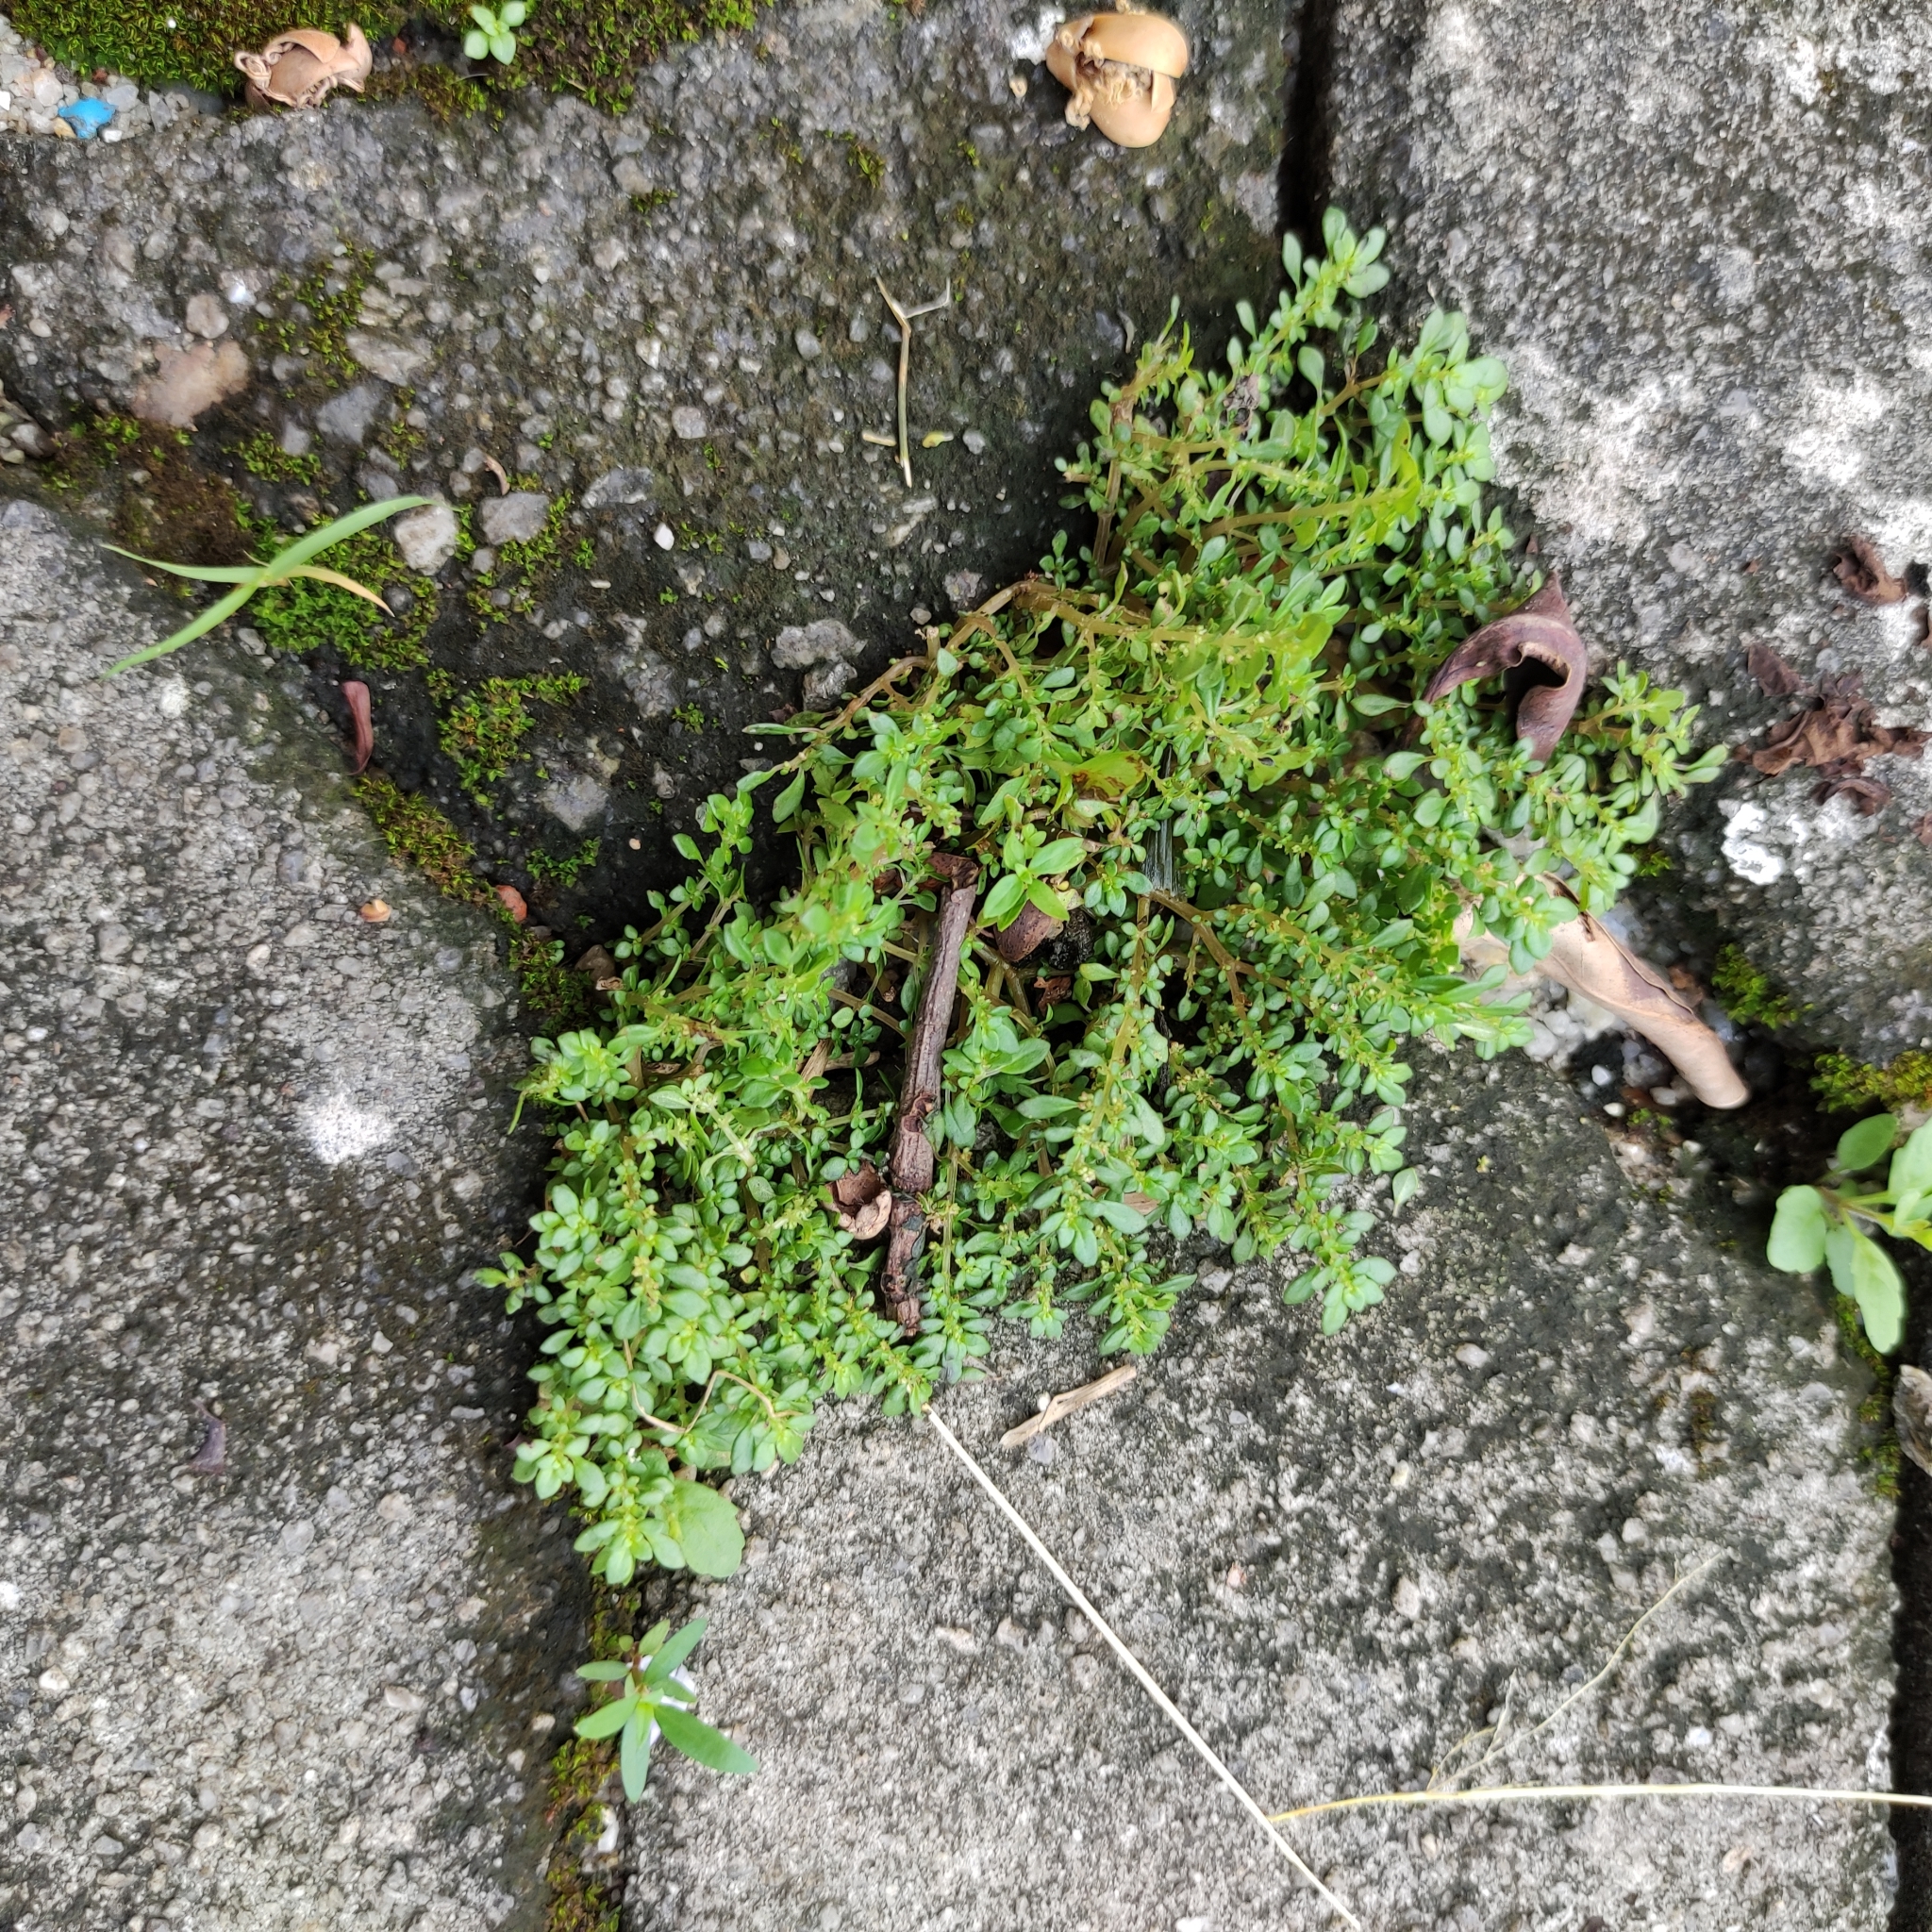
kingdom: Plantae
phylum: Tracheophyta
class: Magnoliopsida
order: Rosales
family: Urticaceae
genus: Pilea
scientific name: Pilea microphylla
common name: Artillery-plant
